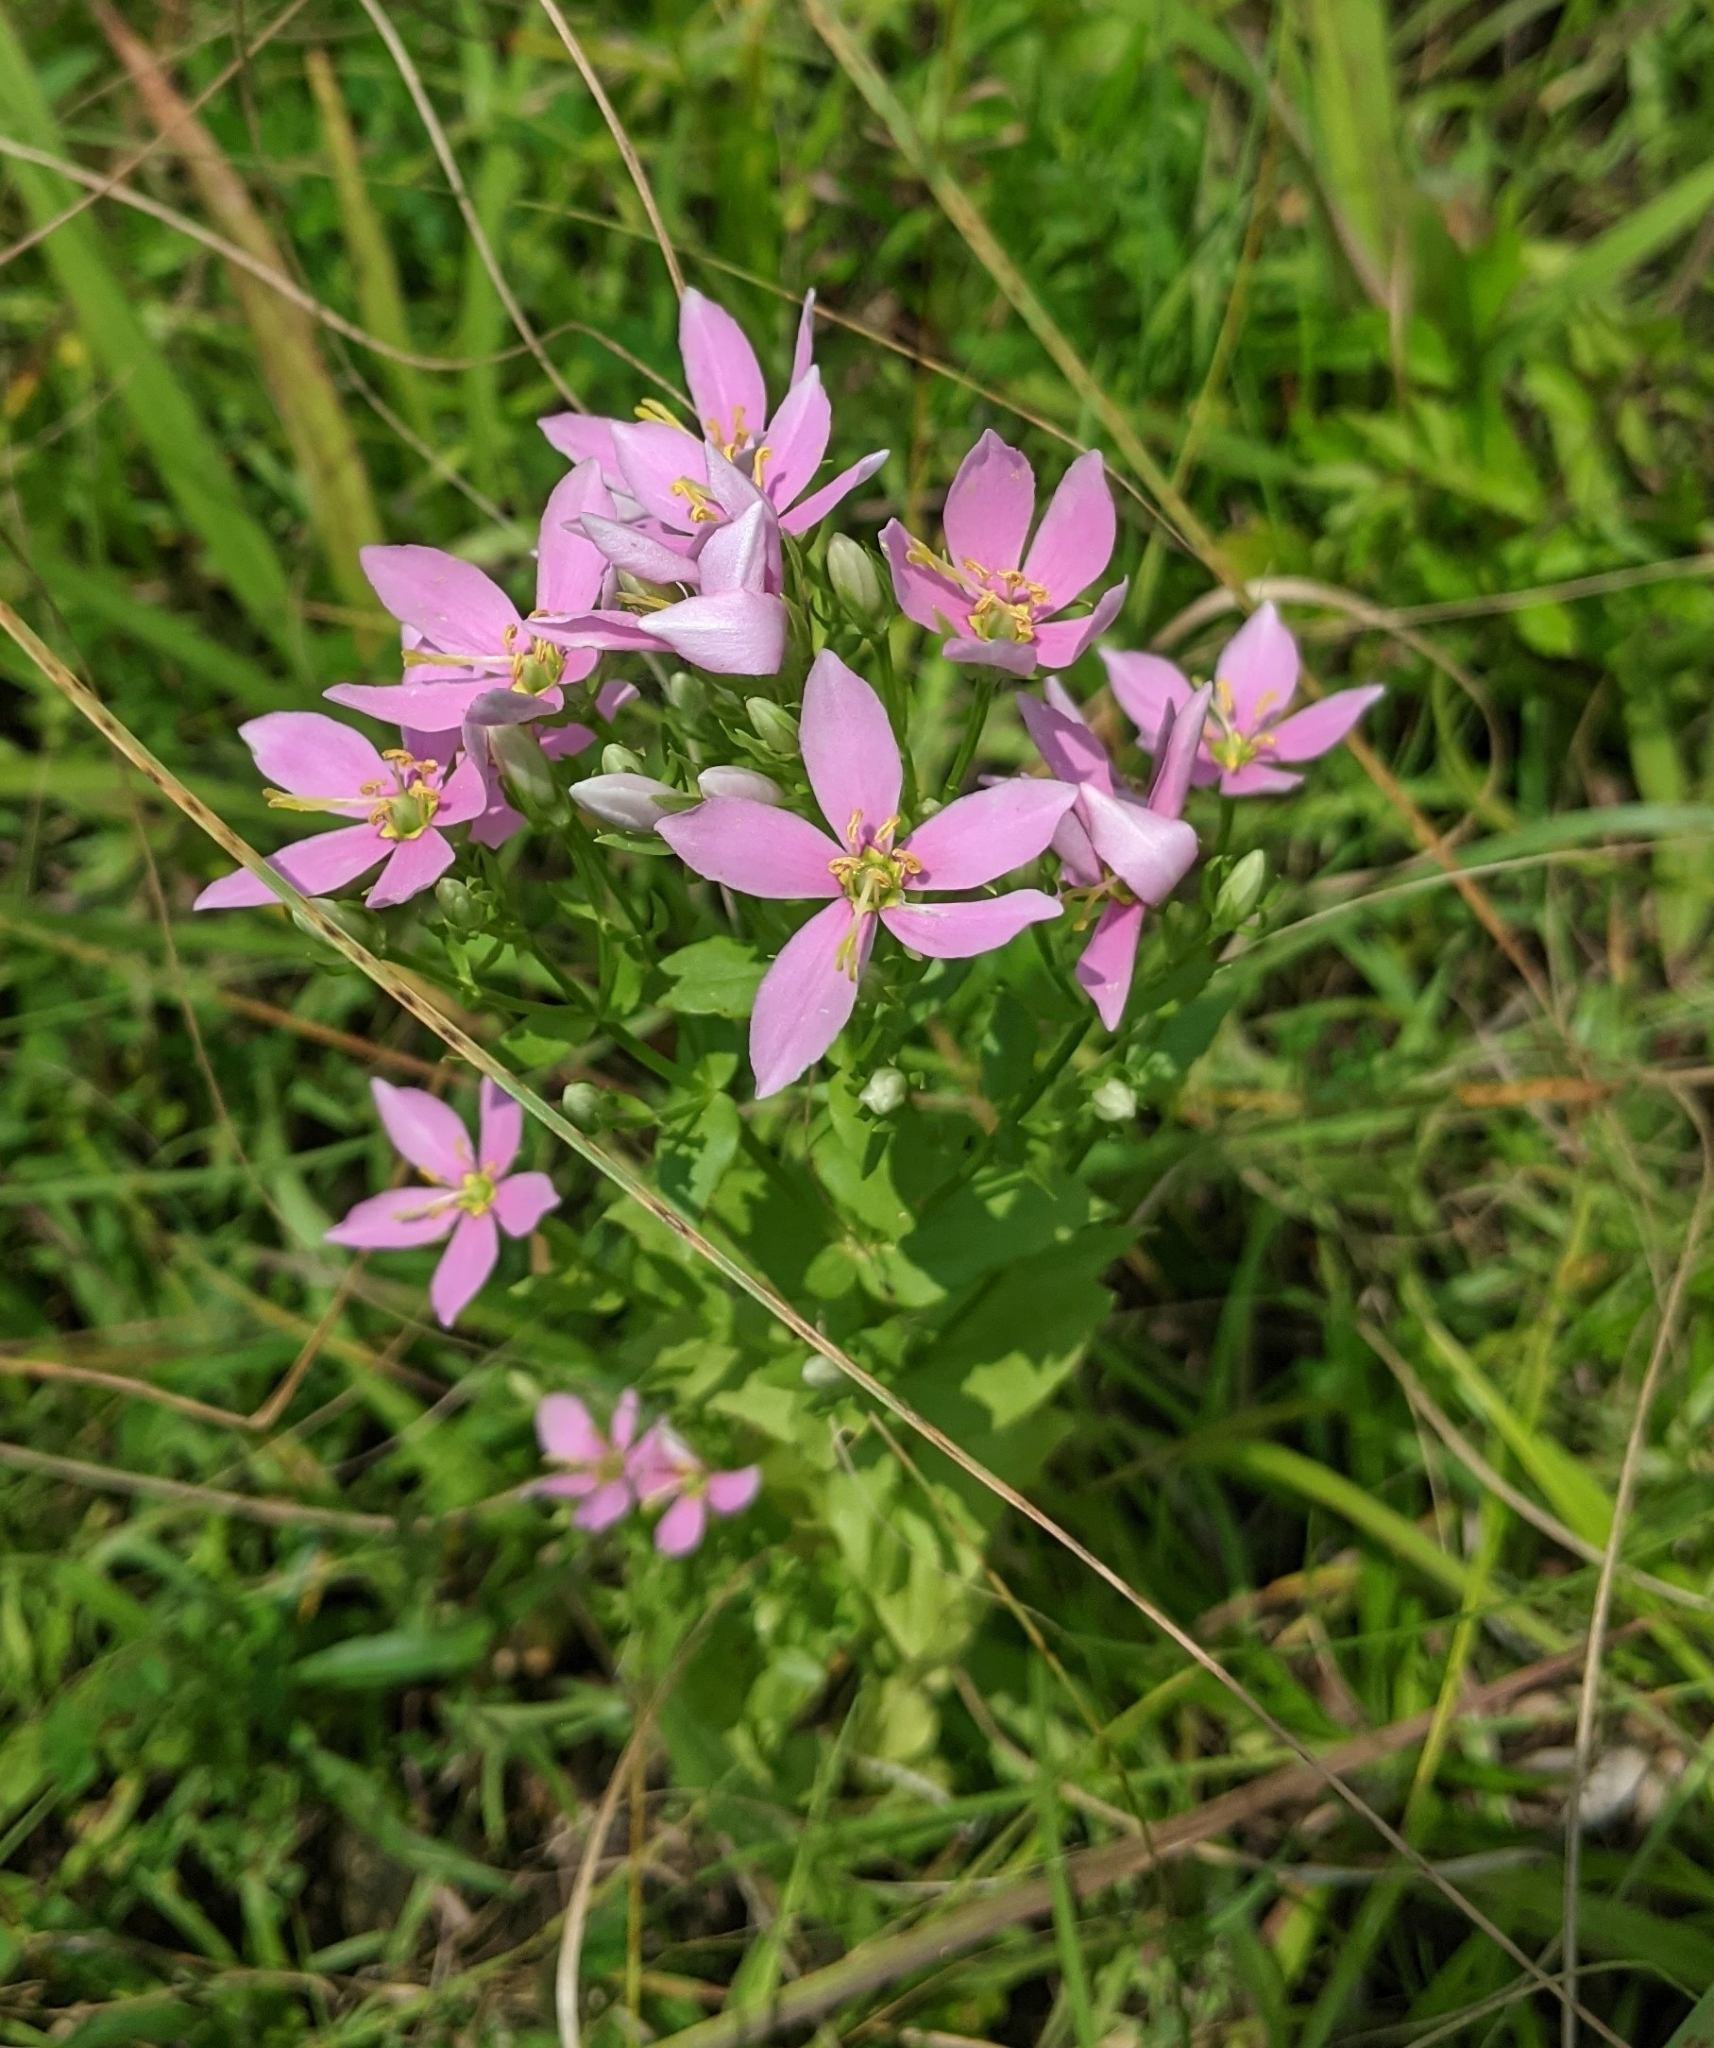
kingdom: Plantae
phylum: Tracheophyta
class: Magnoliopsida
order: Gentianales
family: Gentianaceae
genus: Sabatia
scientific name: Sabatia angularis
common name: Rose-pink
